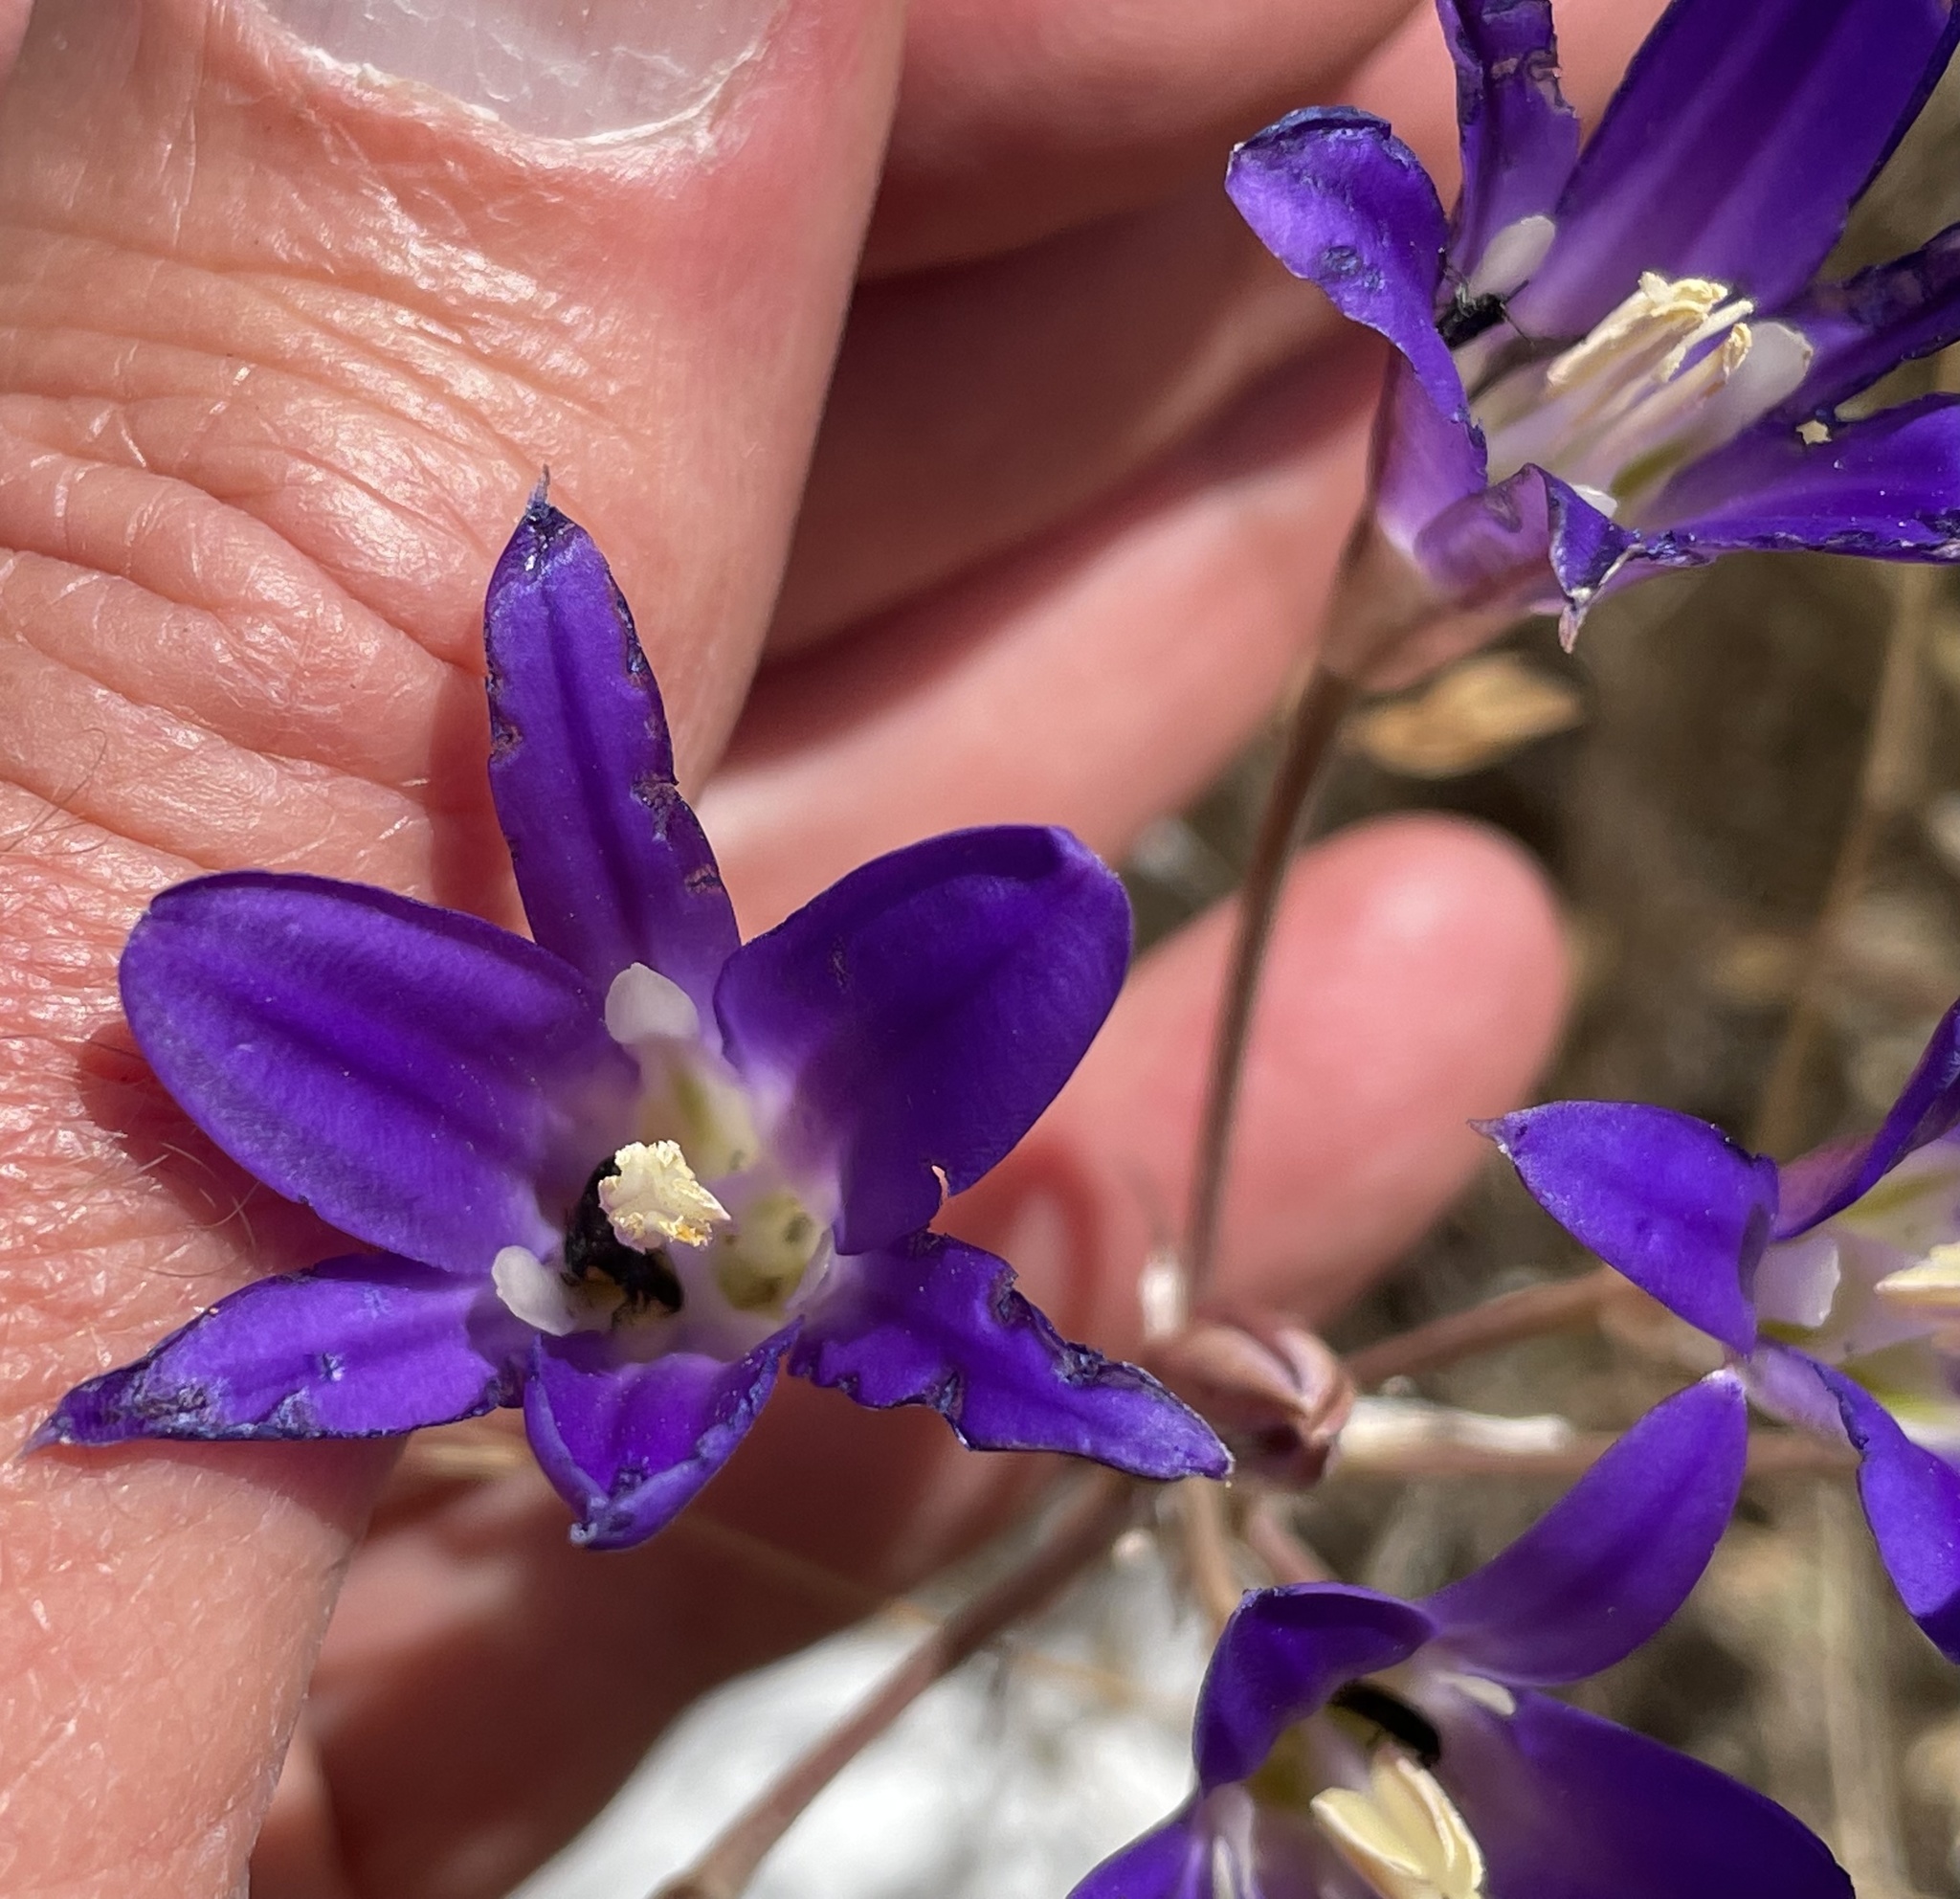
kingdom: Plantae
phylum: Tracheophyta
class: Liliopsida
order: Asparagales
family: Asparagaceae
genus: Brodiaea
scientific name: Brodiaea elegans
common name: Elegant cluster-lily
